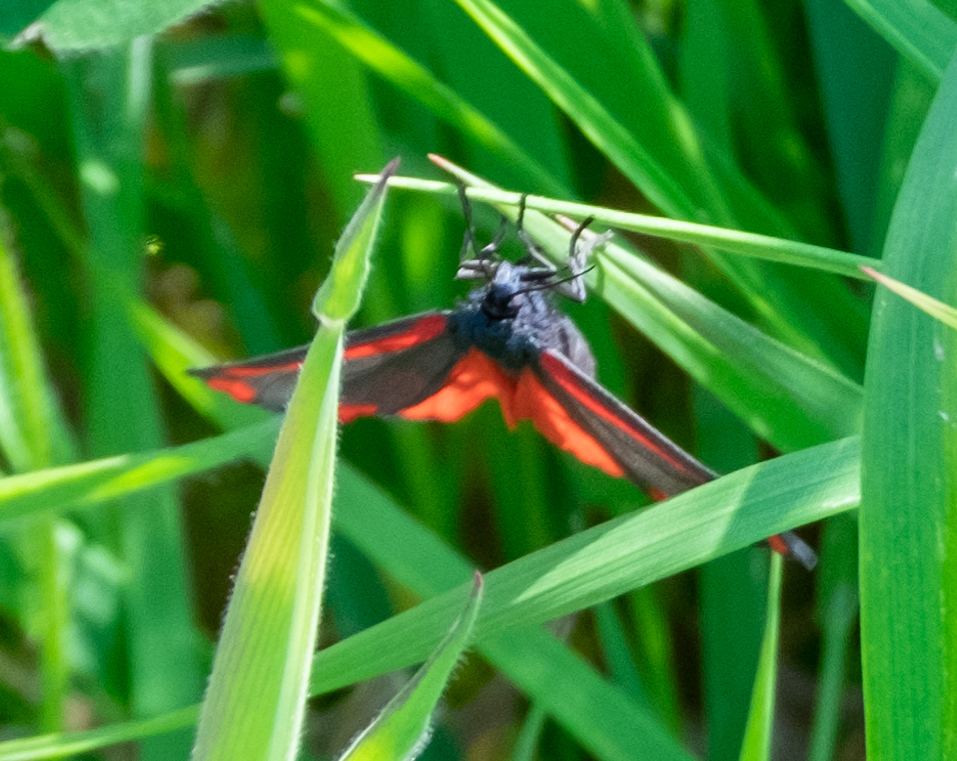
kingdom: Animalia
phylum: Arthropoda
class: Insecta
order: Lepidoptera
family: Erebidae
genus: Tyria
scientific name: Tyria jacobaeae
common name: Cinnabar
